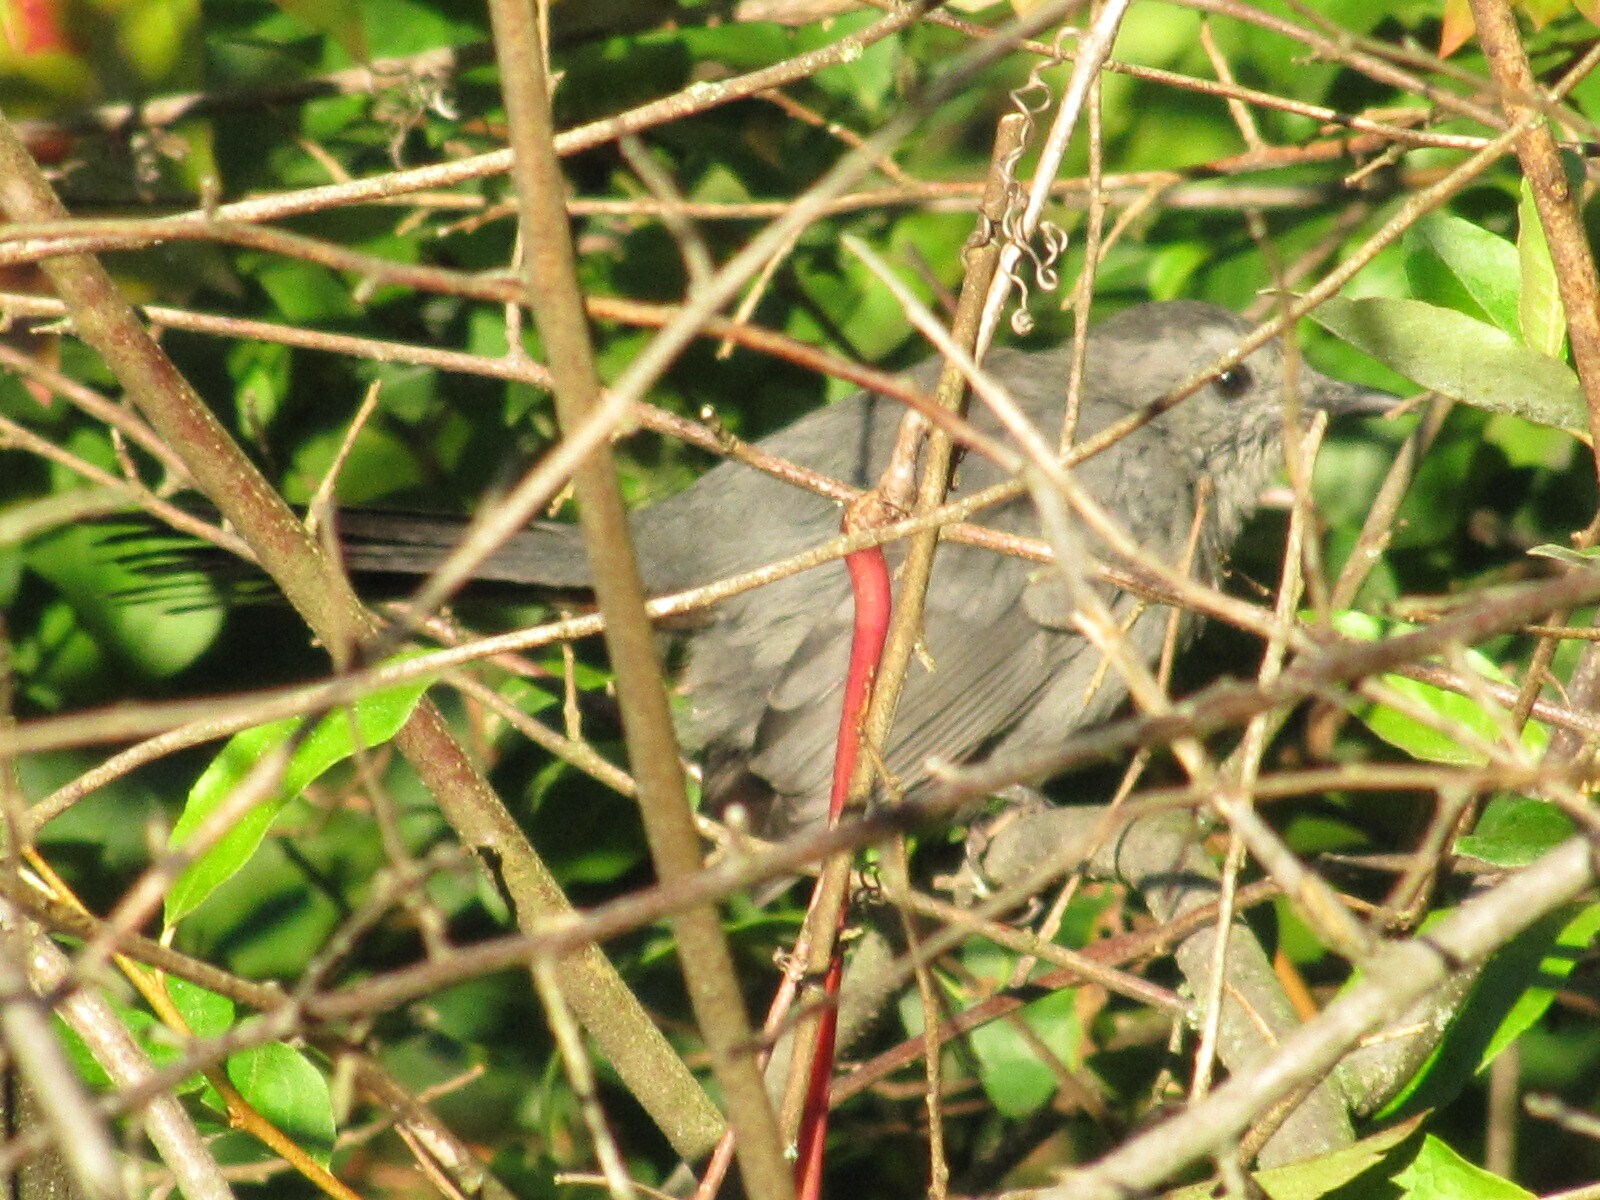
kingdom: Animalia
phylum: Chordata
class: Aves
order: Passeriformes
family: Mimidae
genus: Dumetella
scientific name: Dumetella carolinensis
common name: Gray catbird
